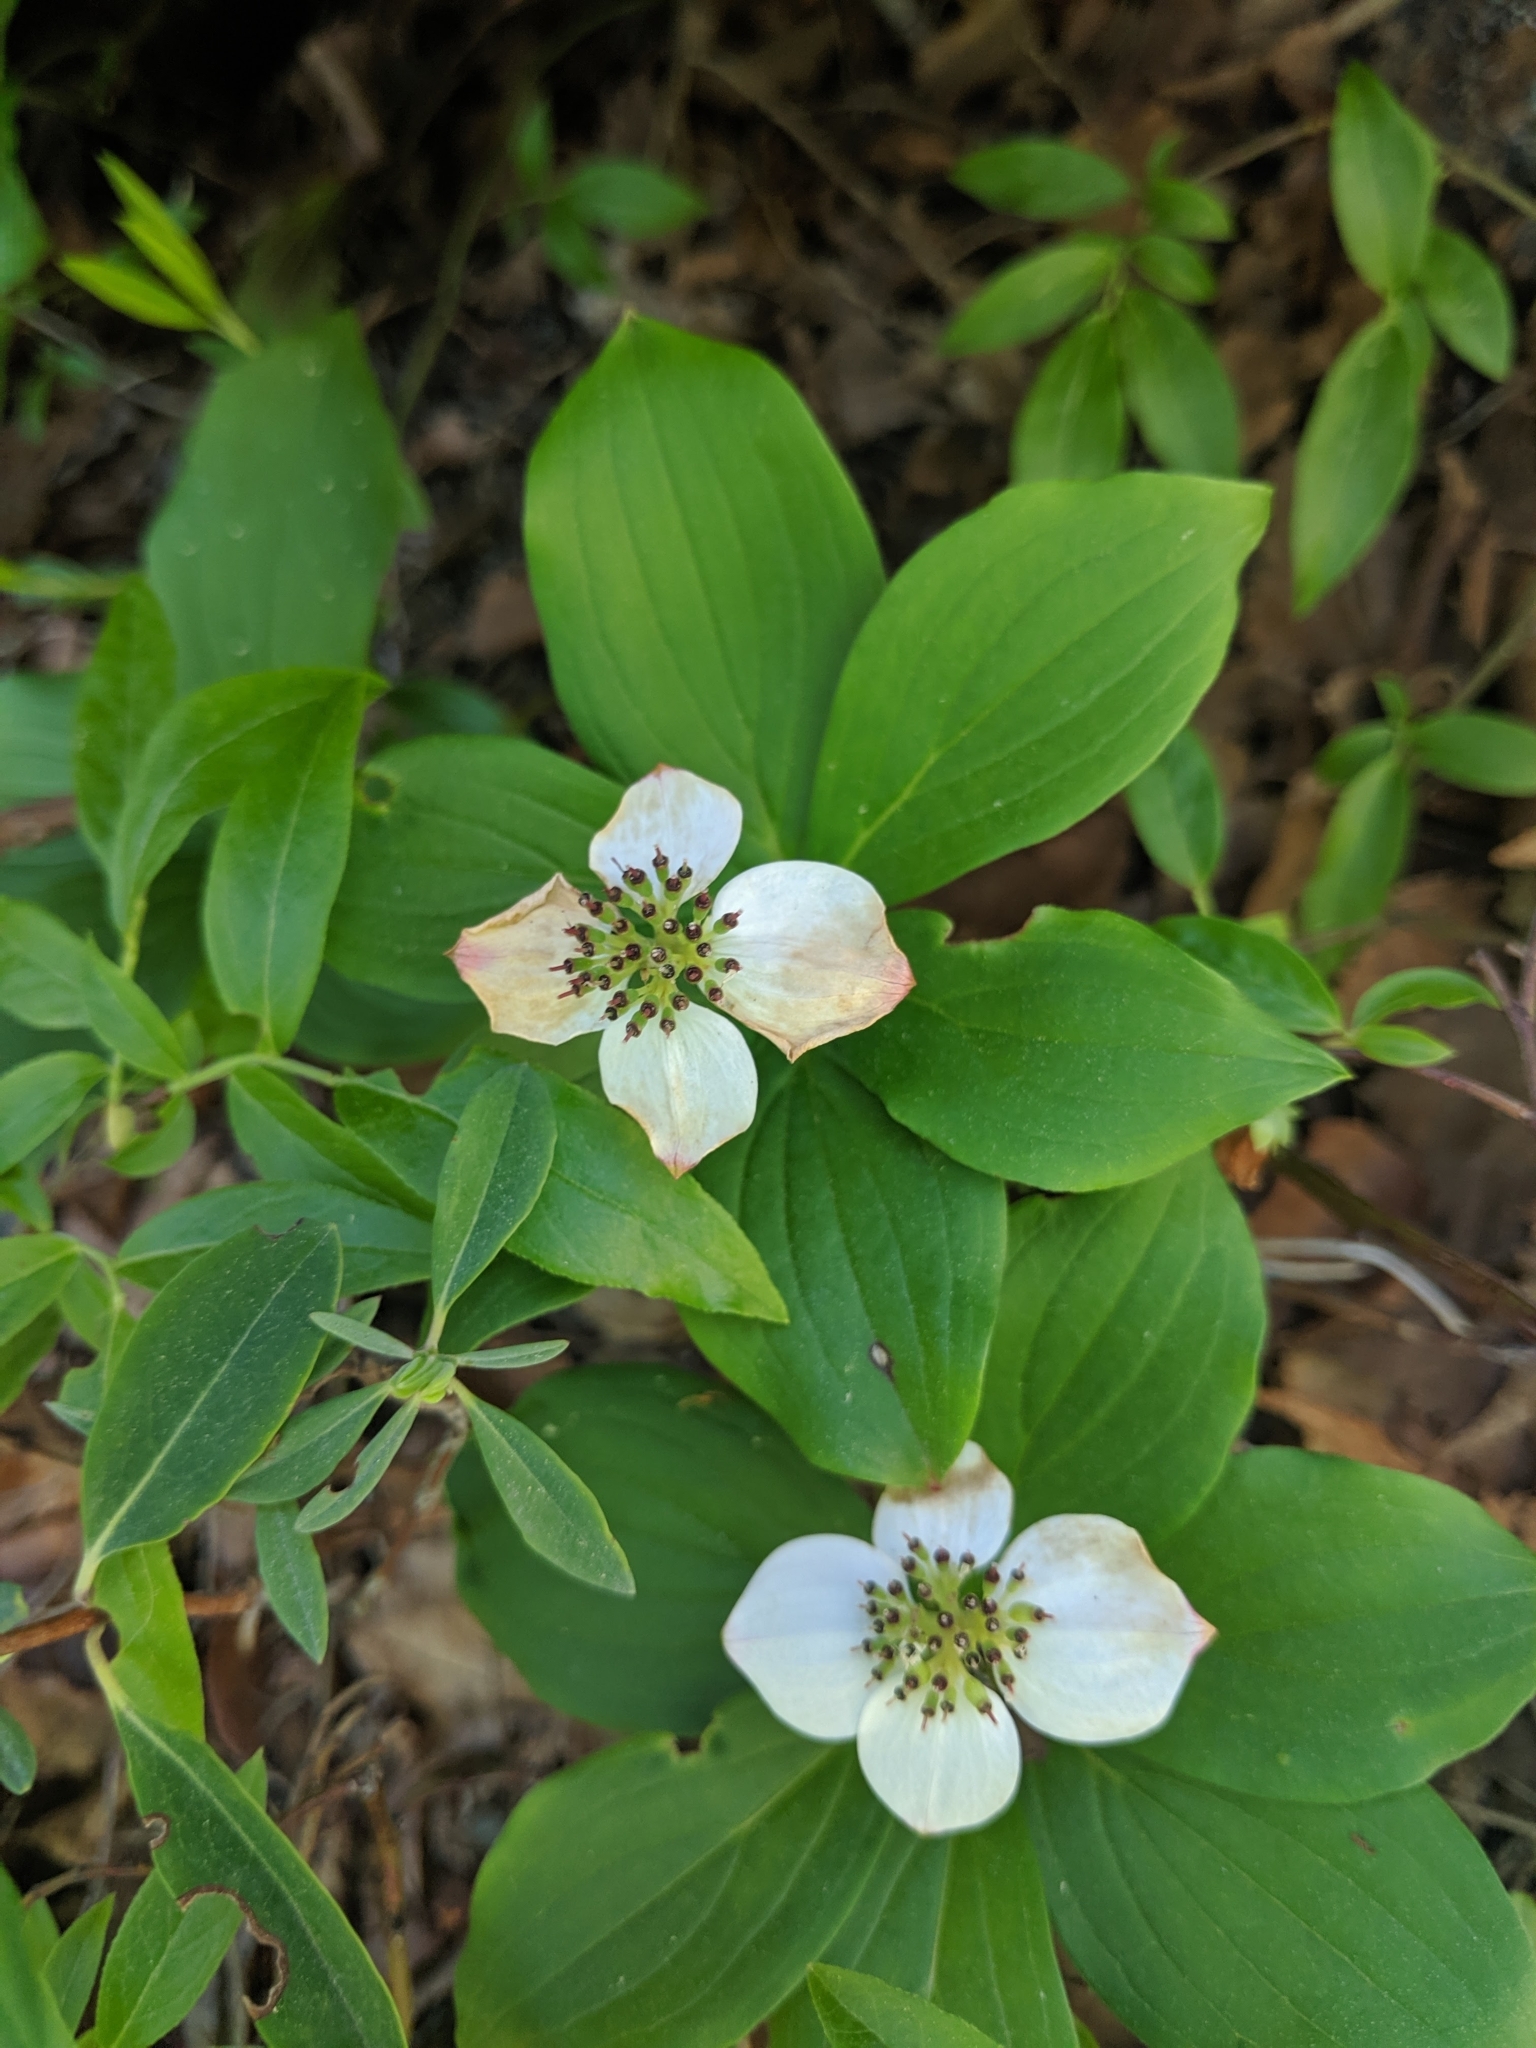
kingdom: Plantae
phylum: Tracheophyta
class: Magnoliopsida
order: Cornales
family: Cornaceae
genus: Cornus
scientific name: Cornus canadensis
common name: Creeping dogwood
